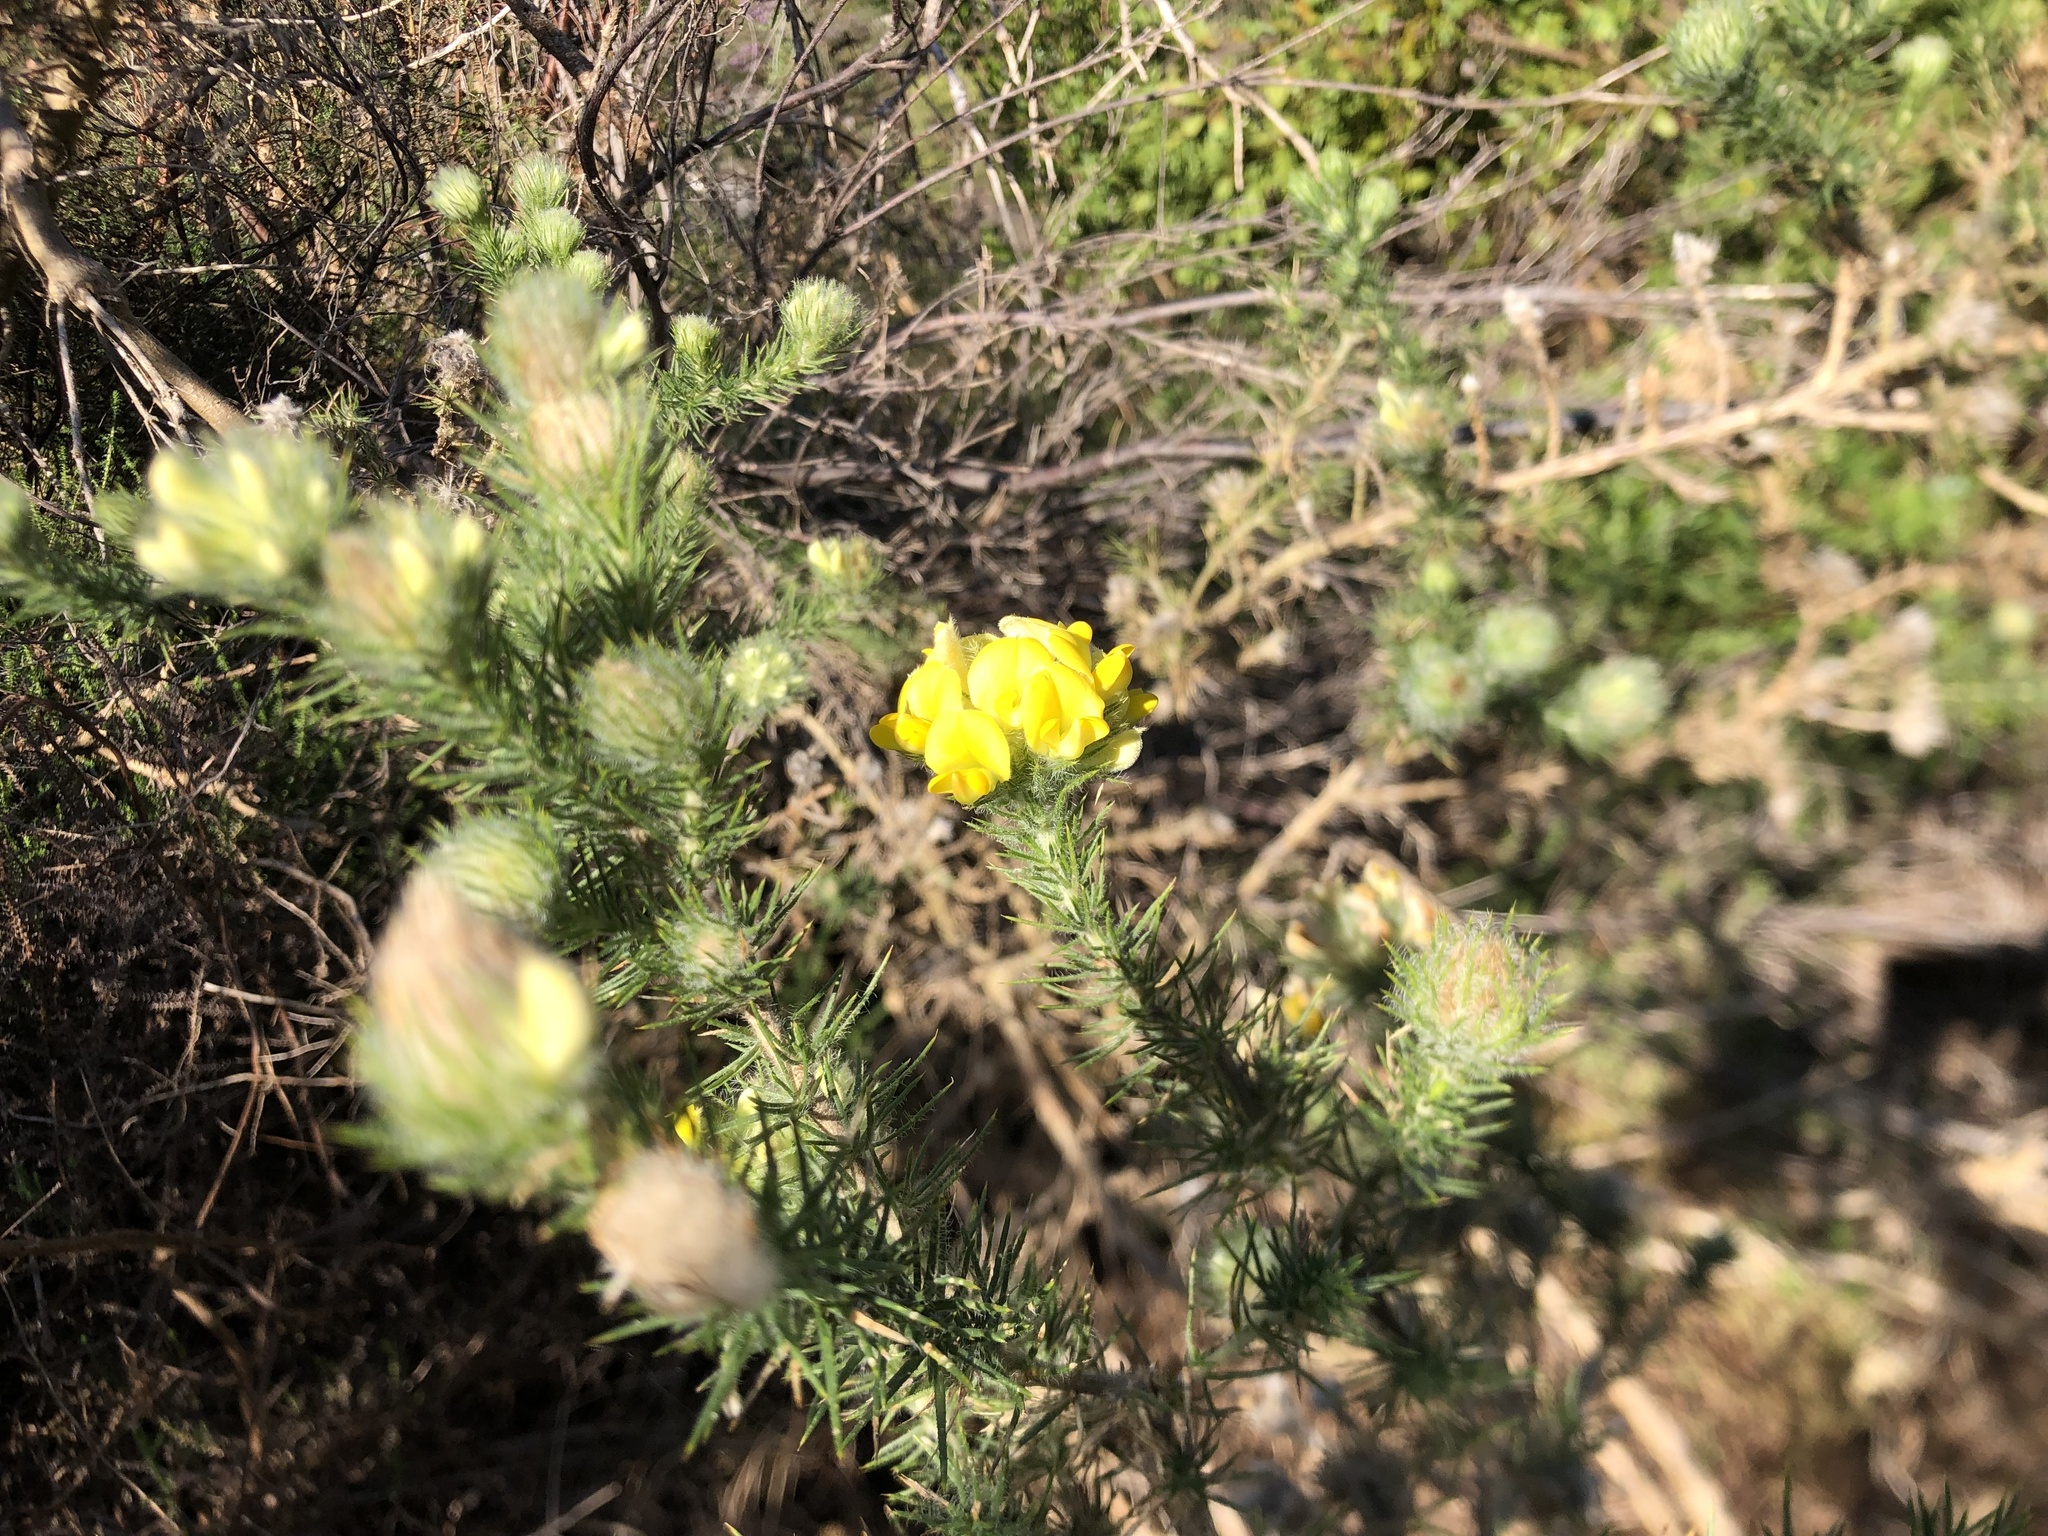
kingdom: Plantae
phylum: Tracheophyta
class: Magnoliopsida
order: Fabales
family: Fabaceae
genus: Aspalathus
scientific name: Aspalathus chenopoda
